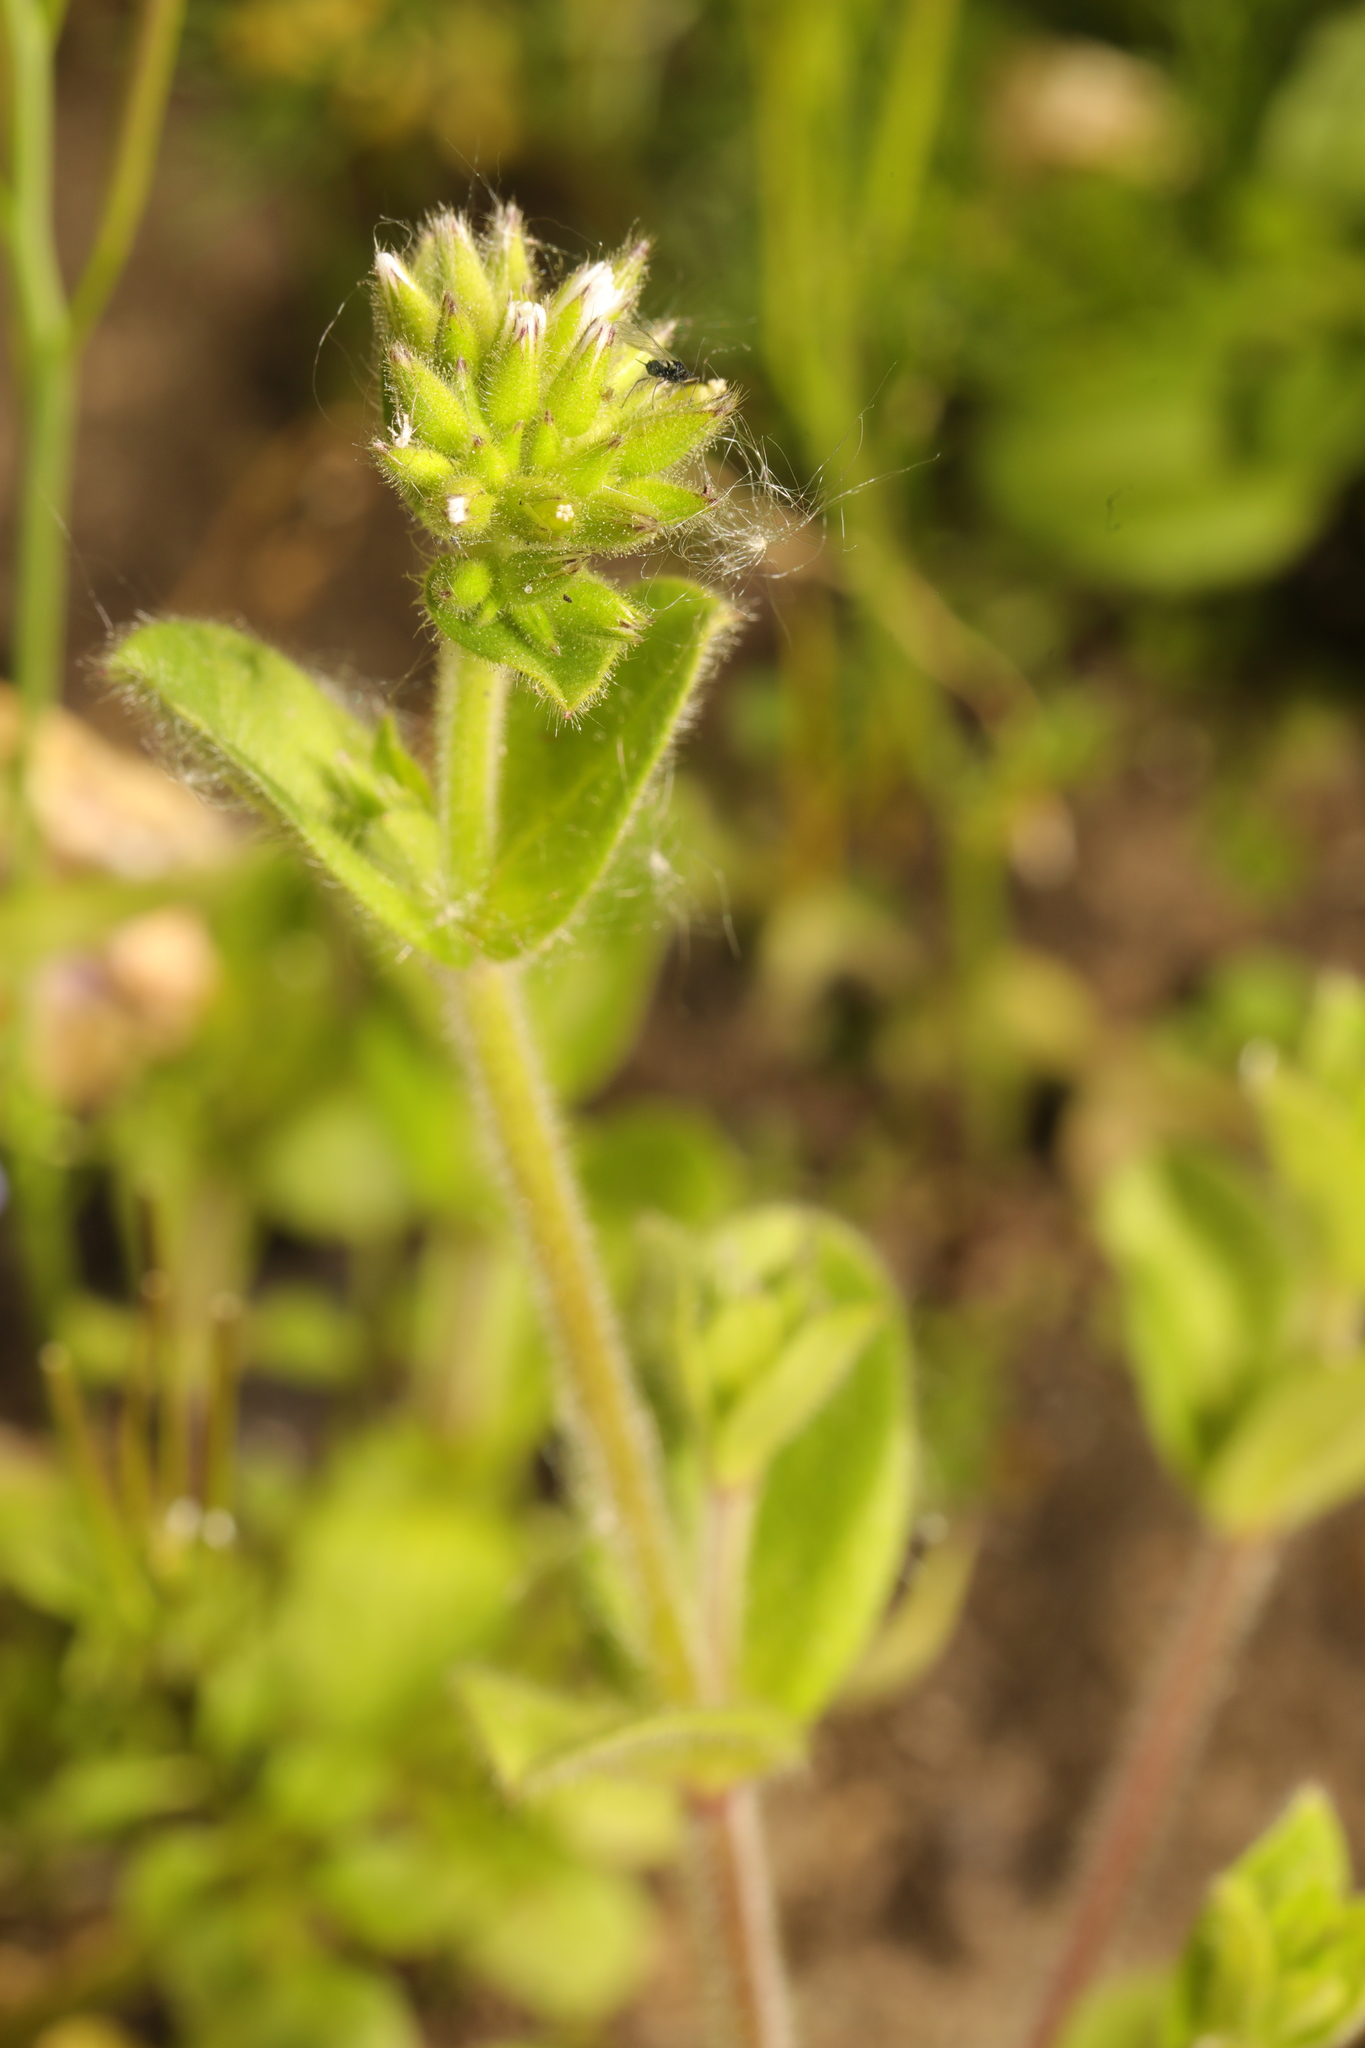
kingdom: Plantae
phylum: Tracheophyta
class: Magnoliopsida
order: Caryophyllales
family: Caryophyllaceae
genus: Cerastium
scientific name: Cerastium glomeratum
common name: Sticky chickweed
